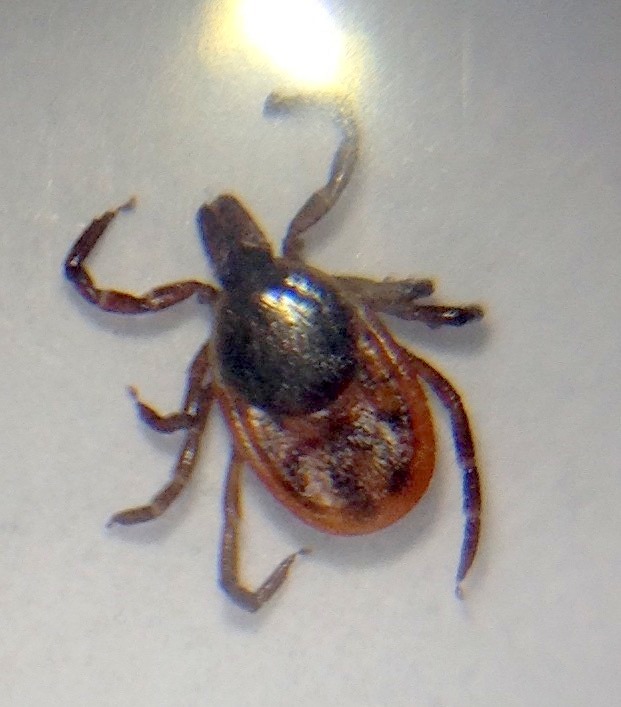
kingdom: Animalia
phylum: Arthropoda
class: Arachnida
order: Ixodida
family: Ixodidae
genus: Ixodes
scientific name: Ixodes scapularis
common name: Black legged tick
